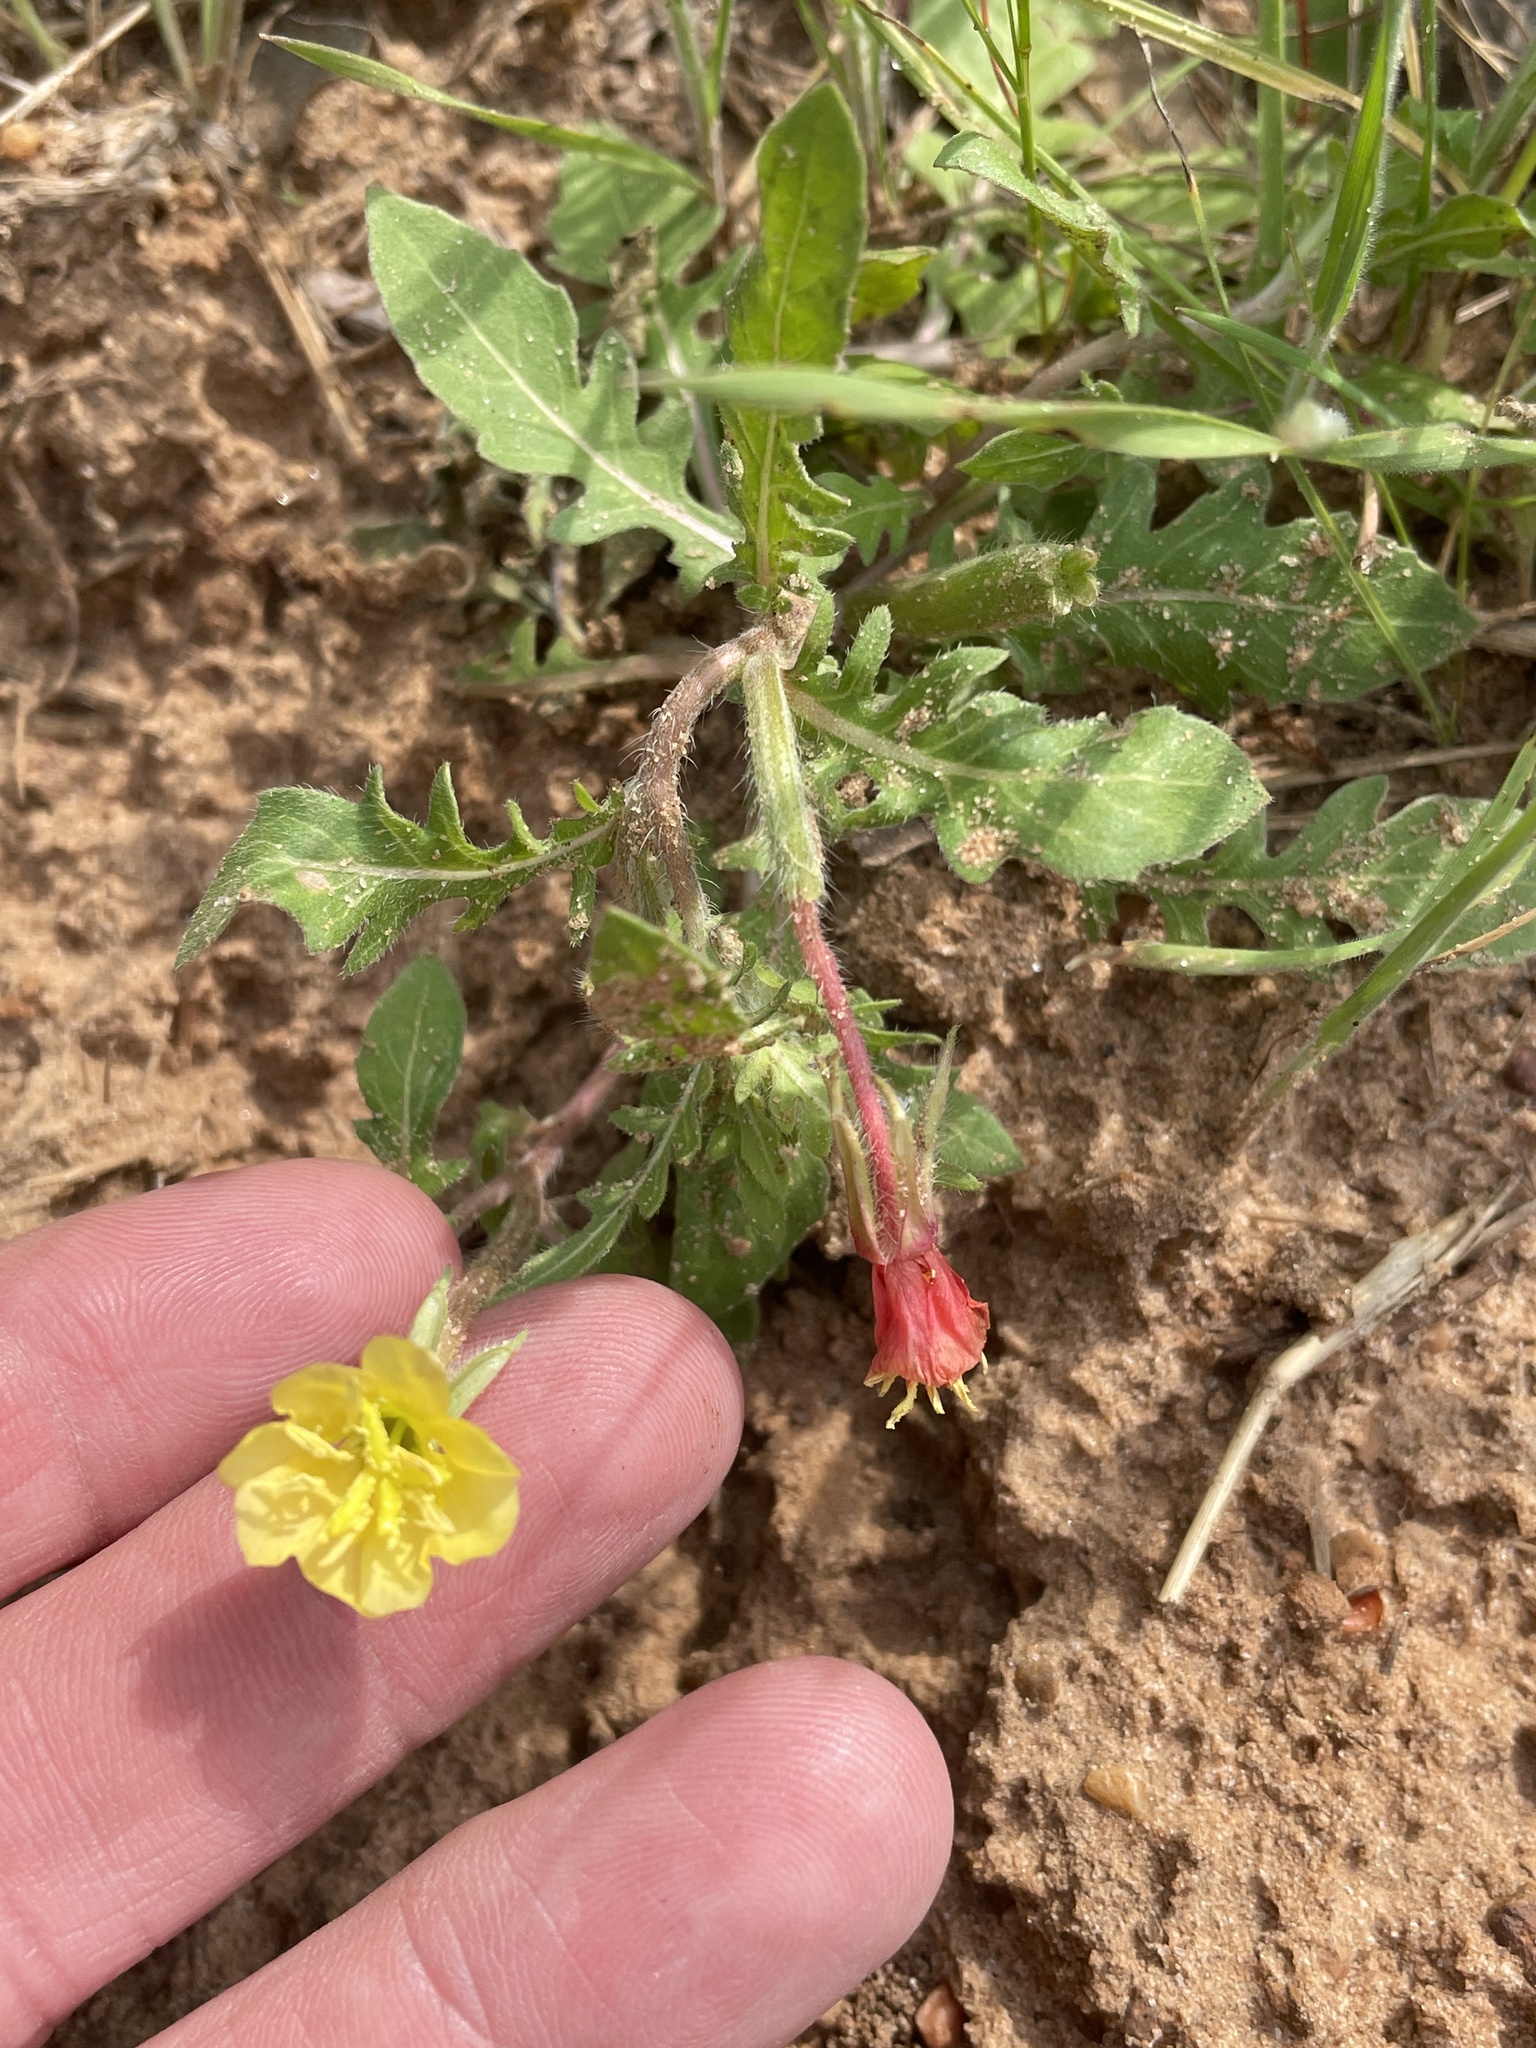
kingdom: Plantae
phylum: Tracheophyta
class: Magnoliopsida
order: Myrtales
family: Onagraceae
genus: Oenothera
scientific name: Oenothera laciniata
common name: Cut-leaved evening-primrose
